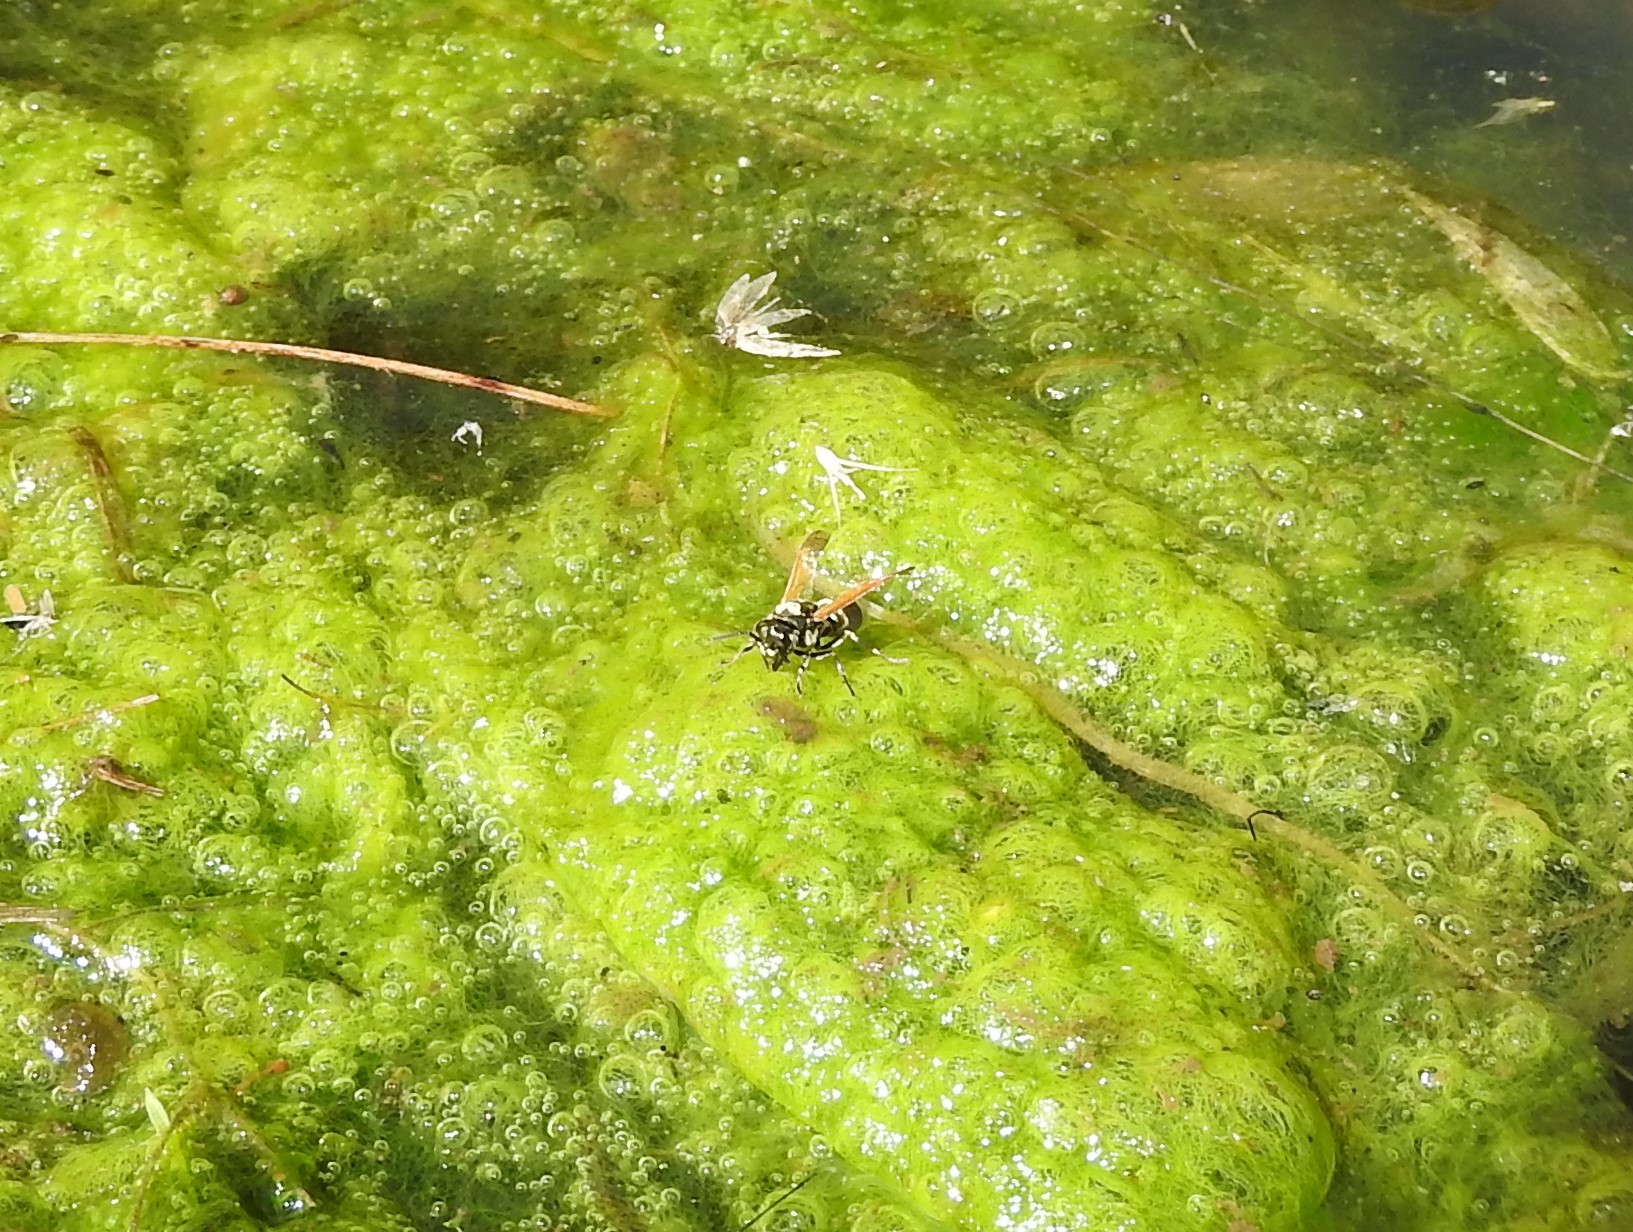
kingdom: Animalia
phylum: Arthropoda
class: Insecta
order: Hymenoptera
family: Vespidae
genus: Brachygastra
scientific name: Brachygastra mellifica
